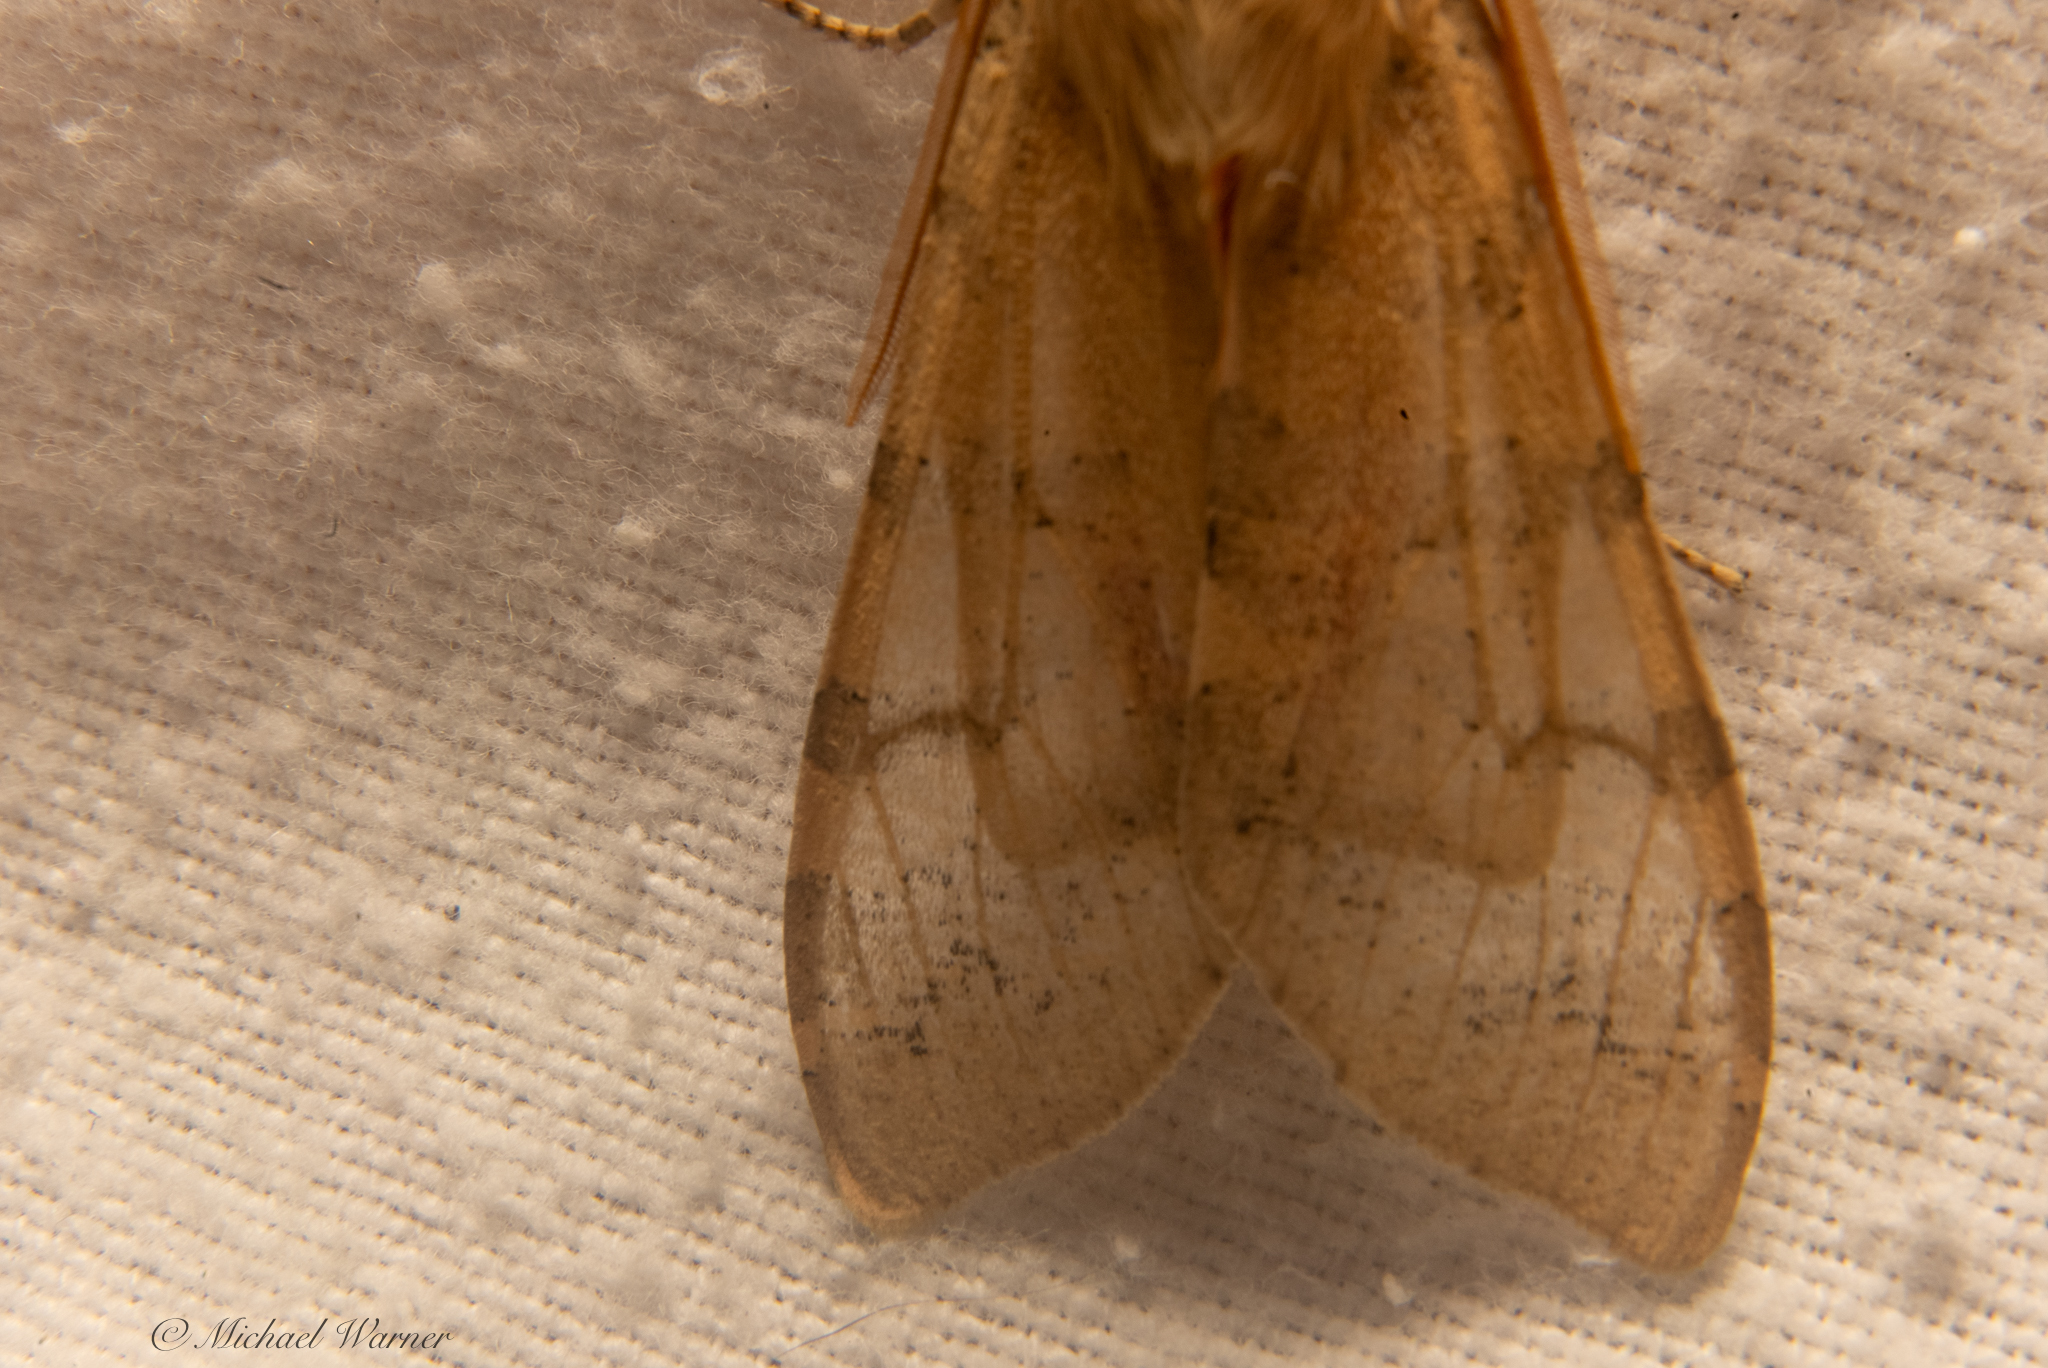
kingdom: Animalia
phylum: Arthropoda
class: Insecta
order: Lepidoptera
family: Erebidae
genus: Hemihyalea
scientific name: Hemihyalea edwardsii
